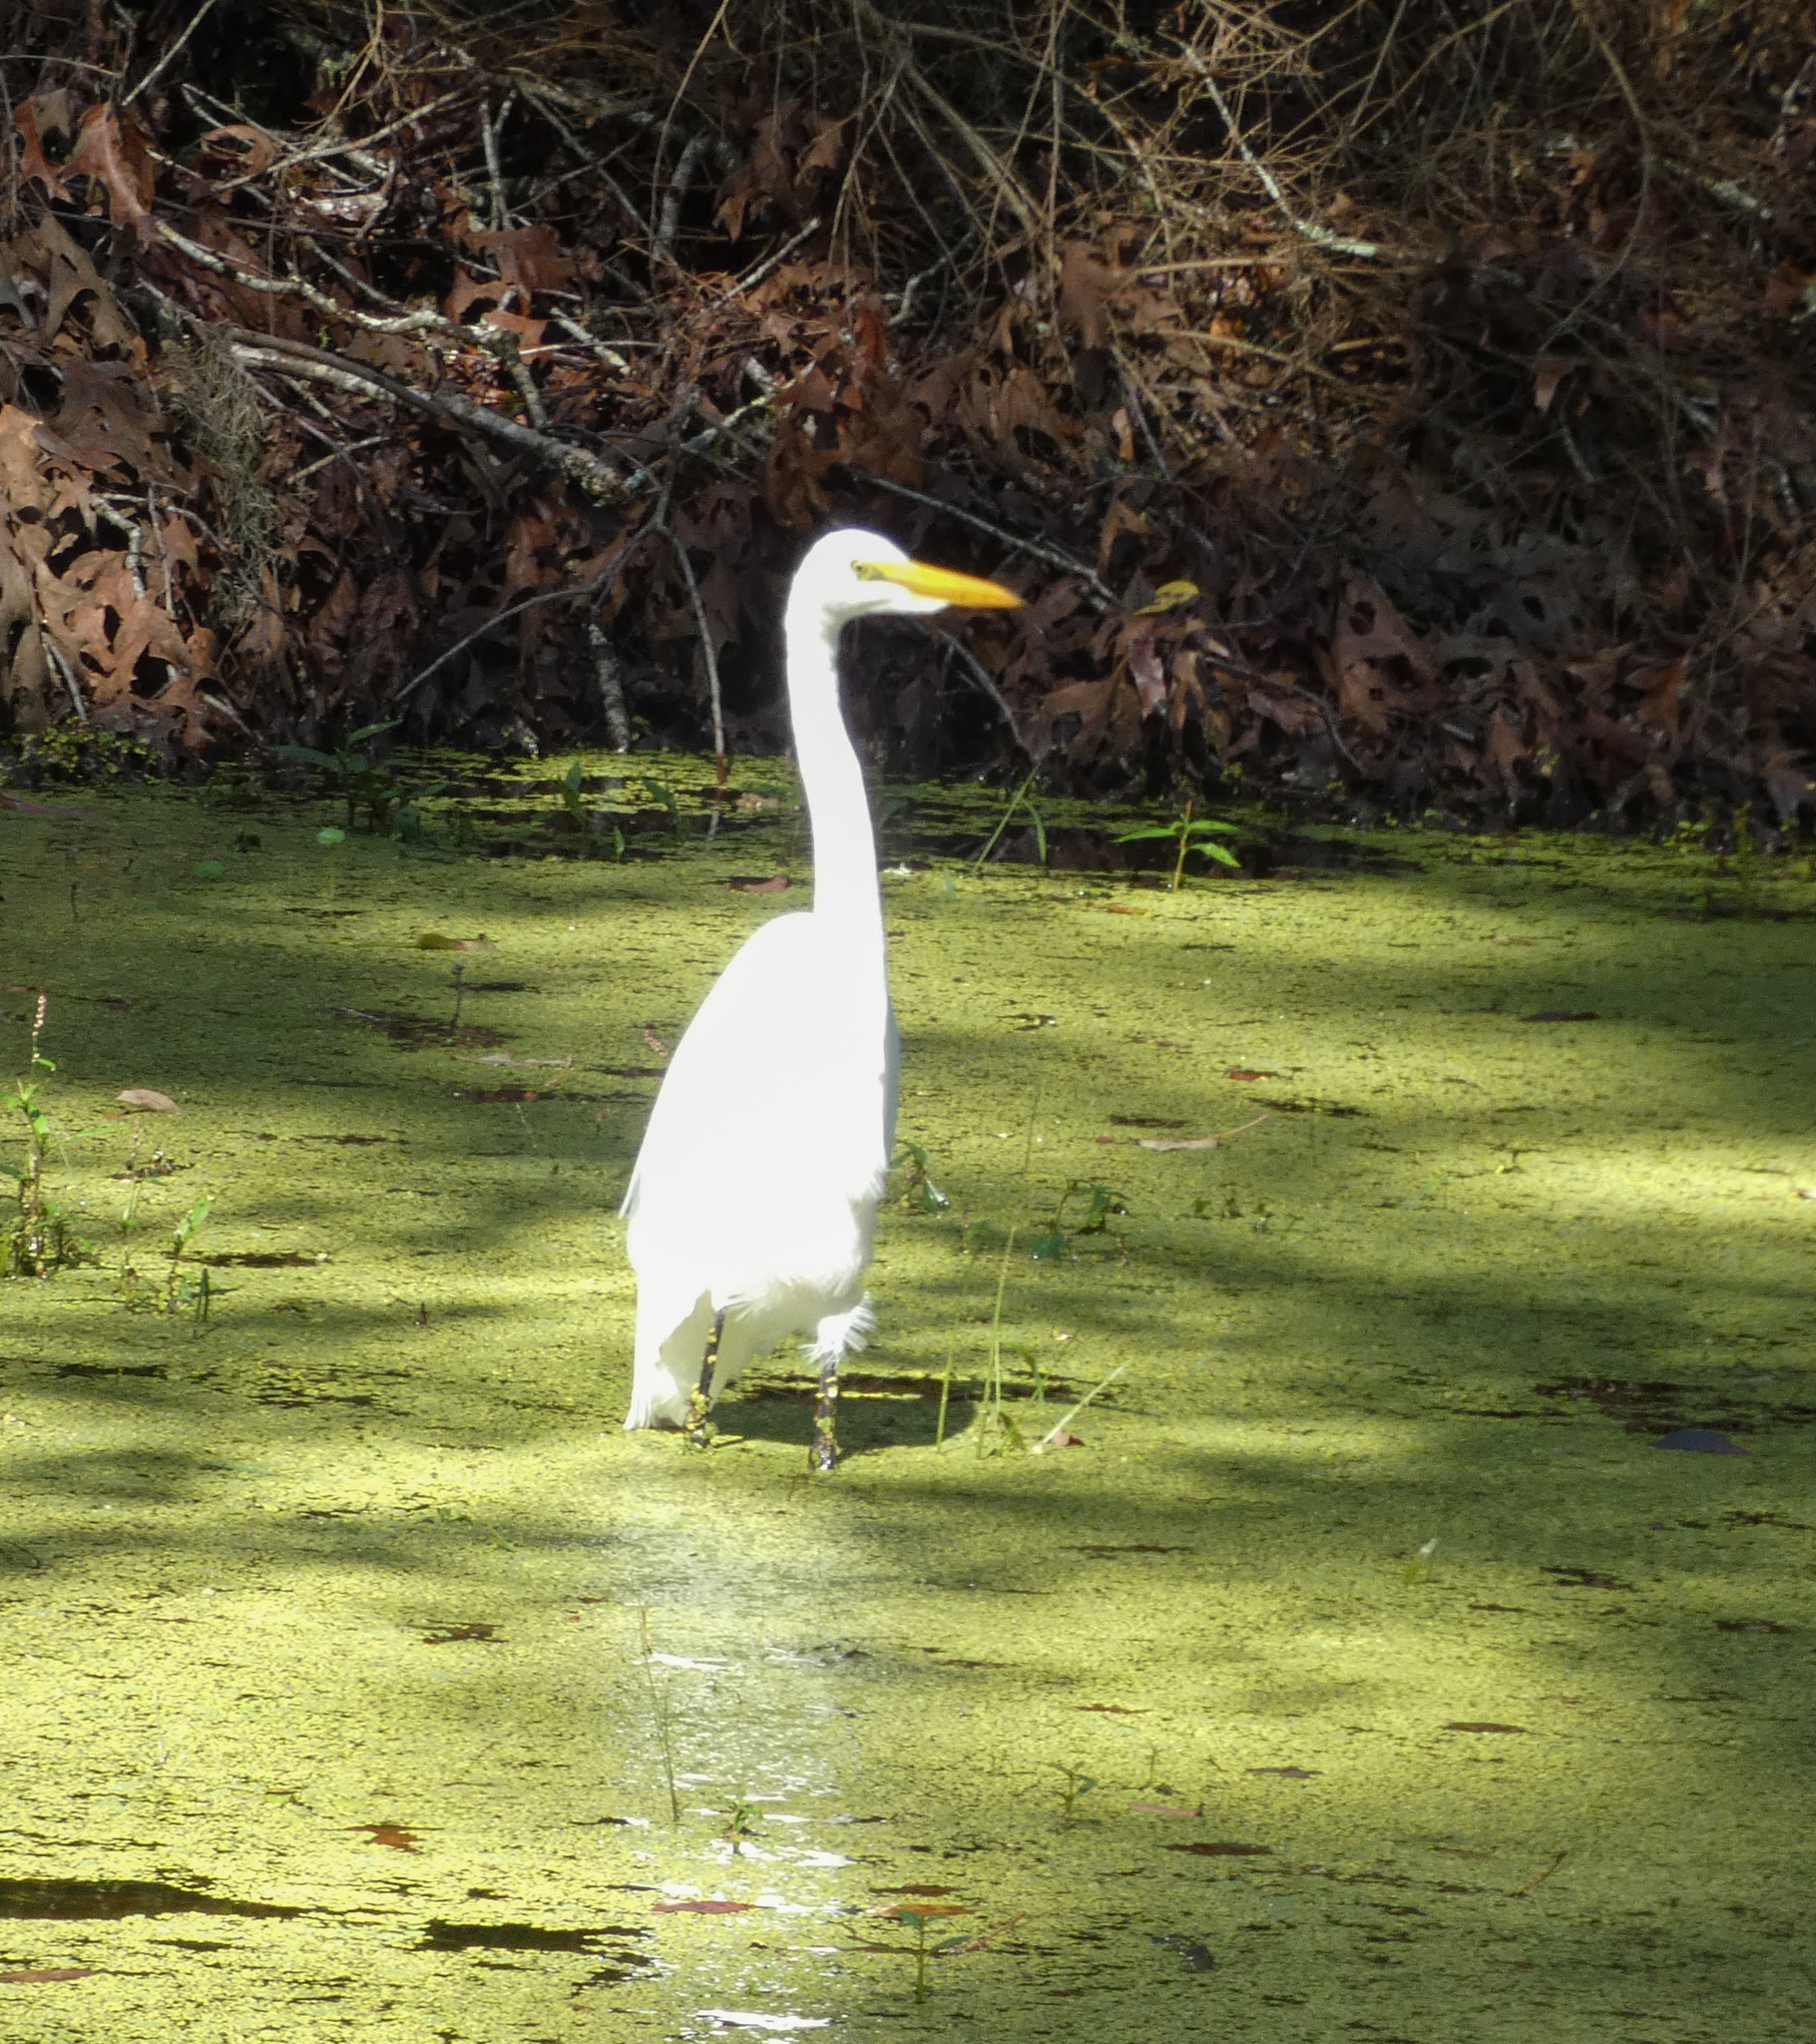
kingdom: Animalia
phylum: Chordata
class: Aves
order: Pelecaniformes
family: Ardeidae
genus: Ardea
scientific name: Ardea alba
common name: Great egret
